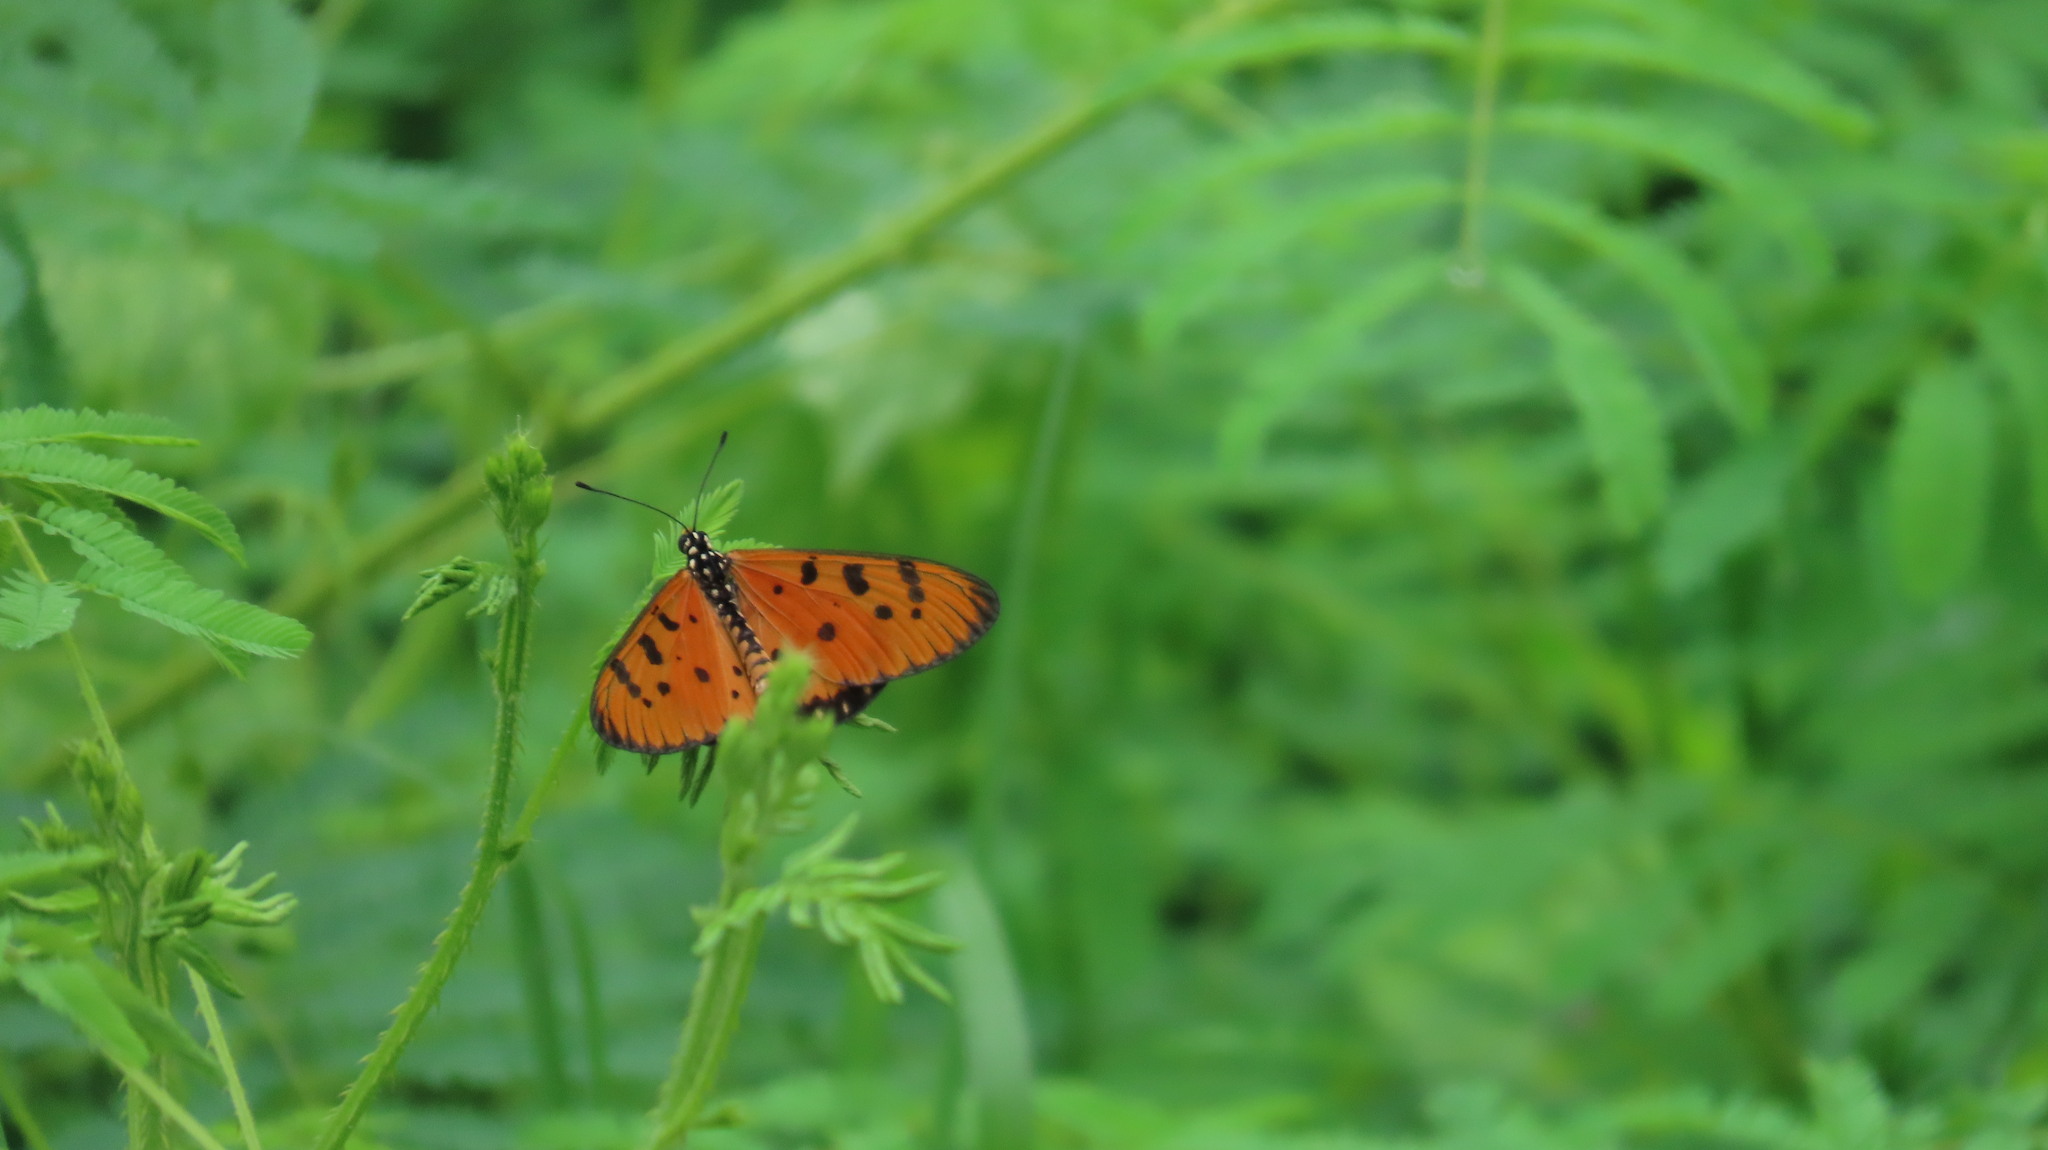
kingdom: Animalia
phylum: Arthropoda
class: Insecta
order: Lepidoptera
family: Nymphalidae
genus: Acraea
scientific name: Acraea terpsicore
